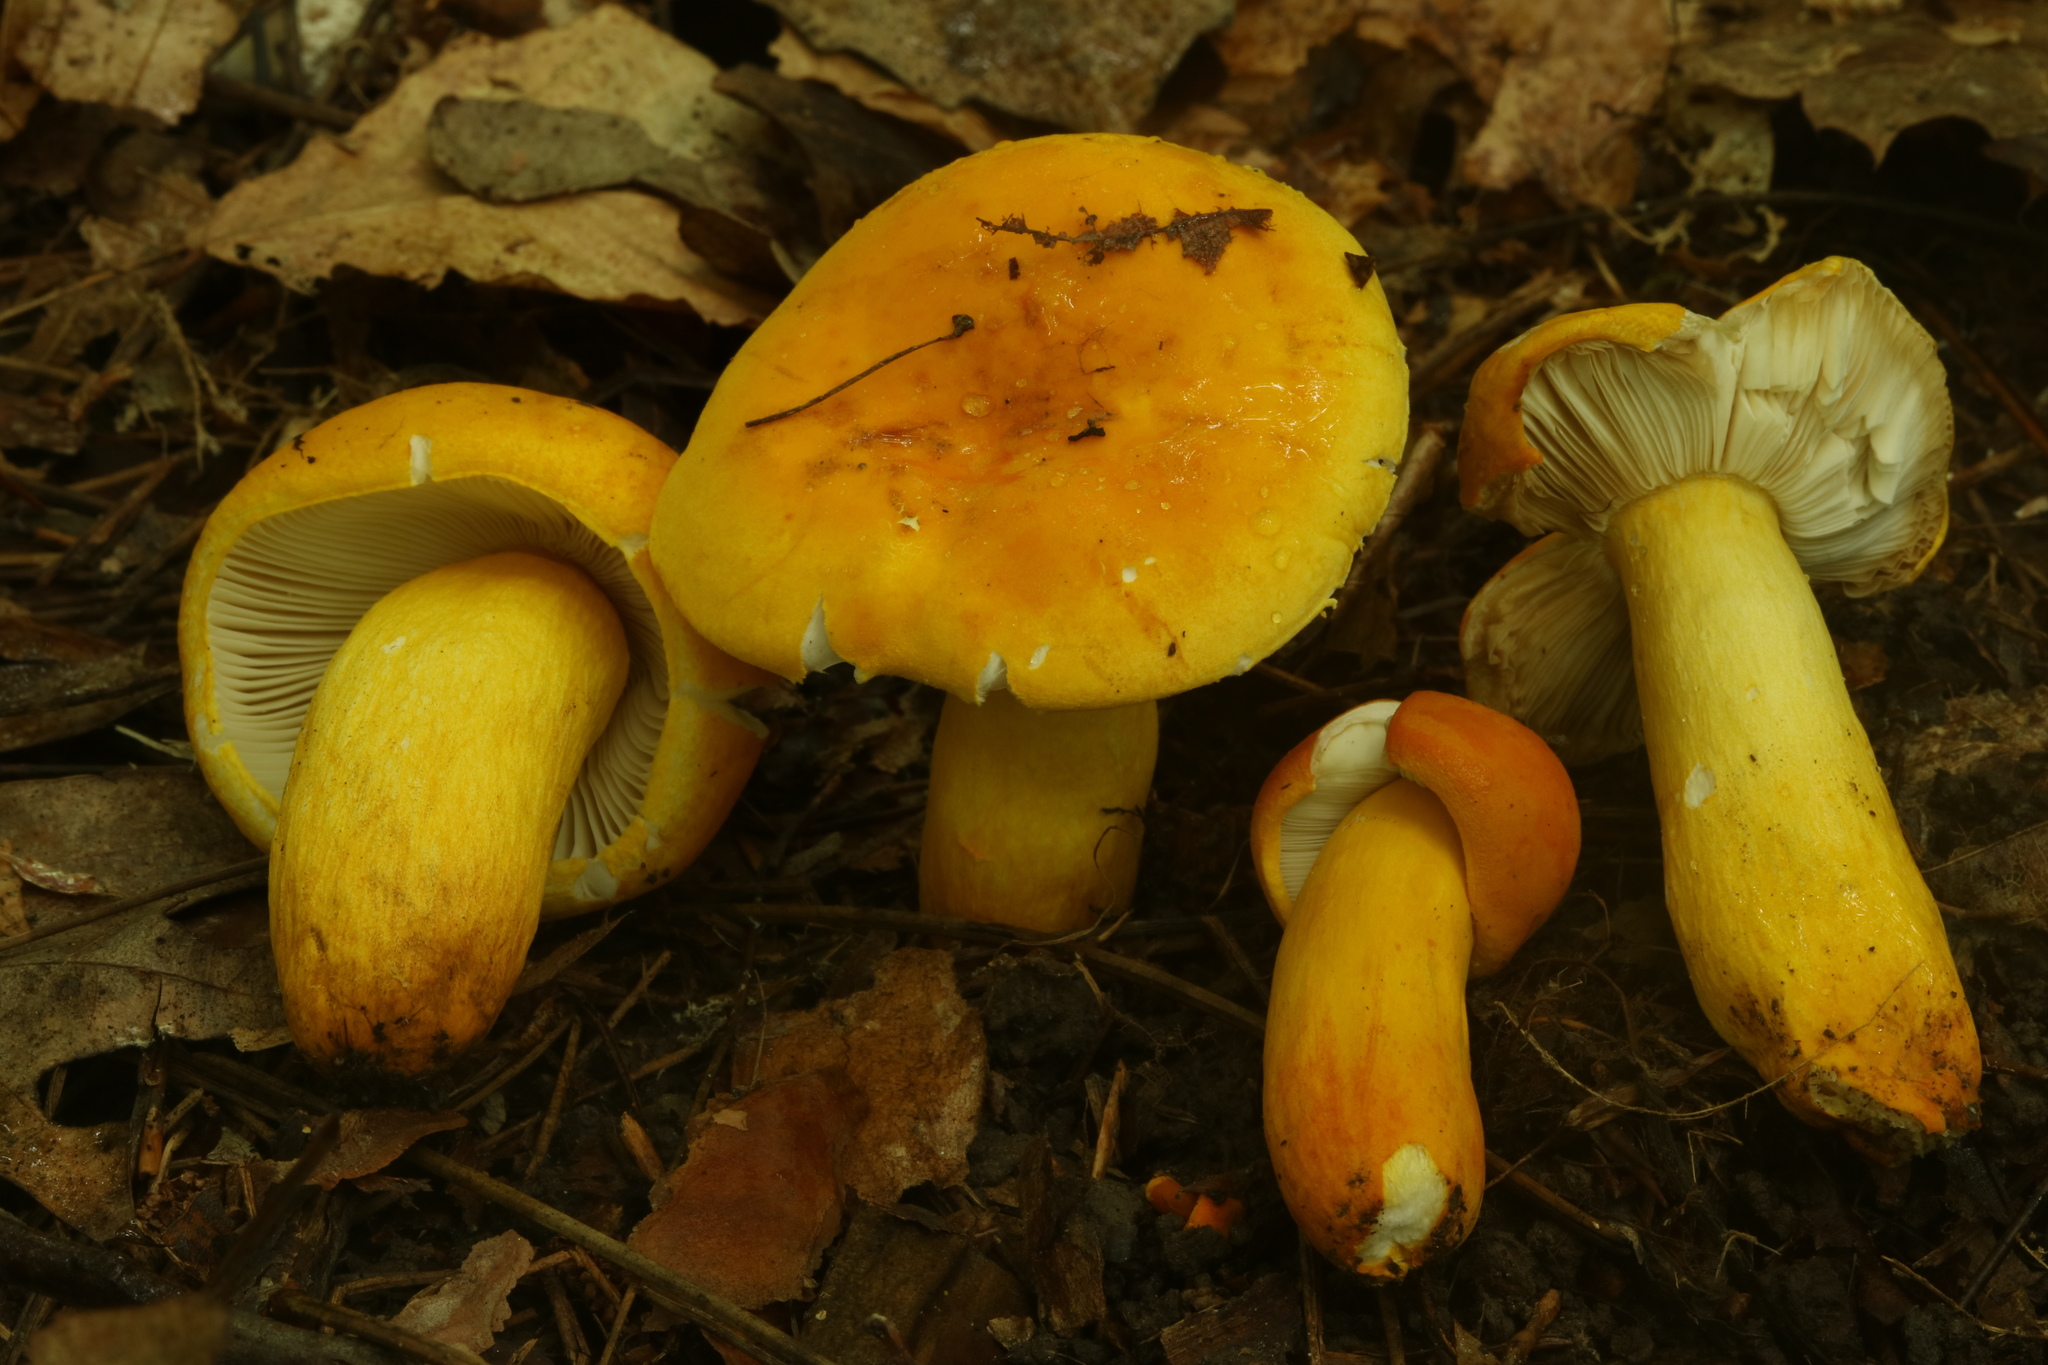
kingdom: Fungi
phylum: Basidiomycota
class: Agaricomycetes
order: Russulales
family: Russulaceae
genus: Russula
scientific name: Russula flavida
